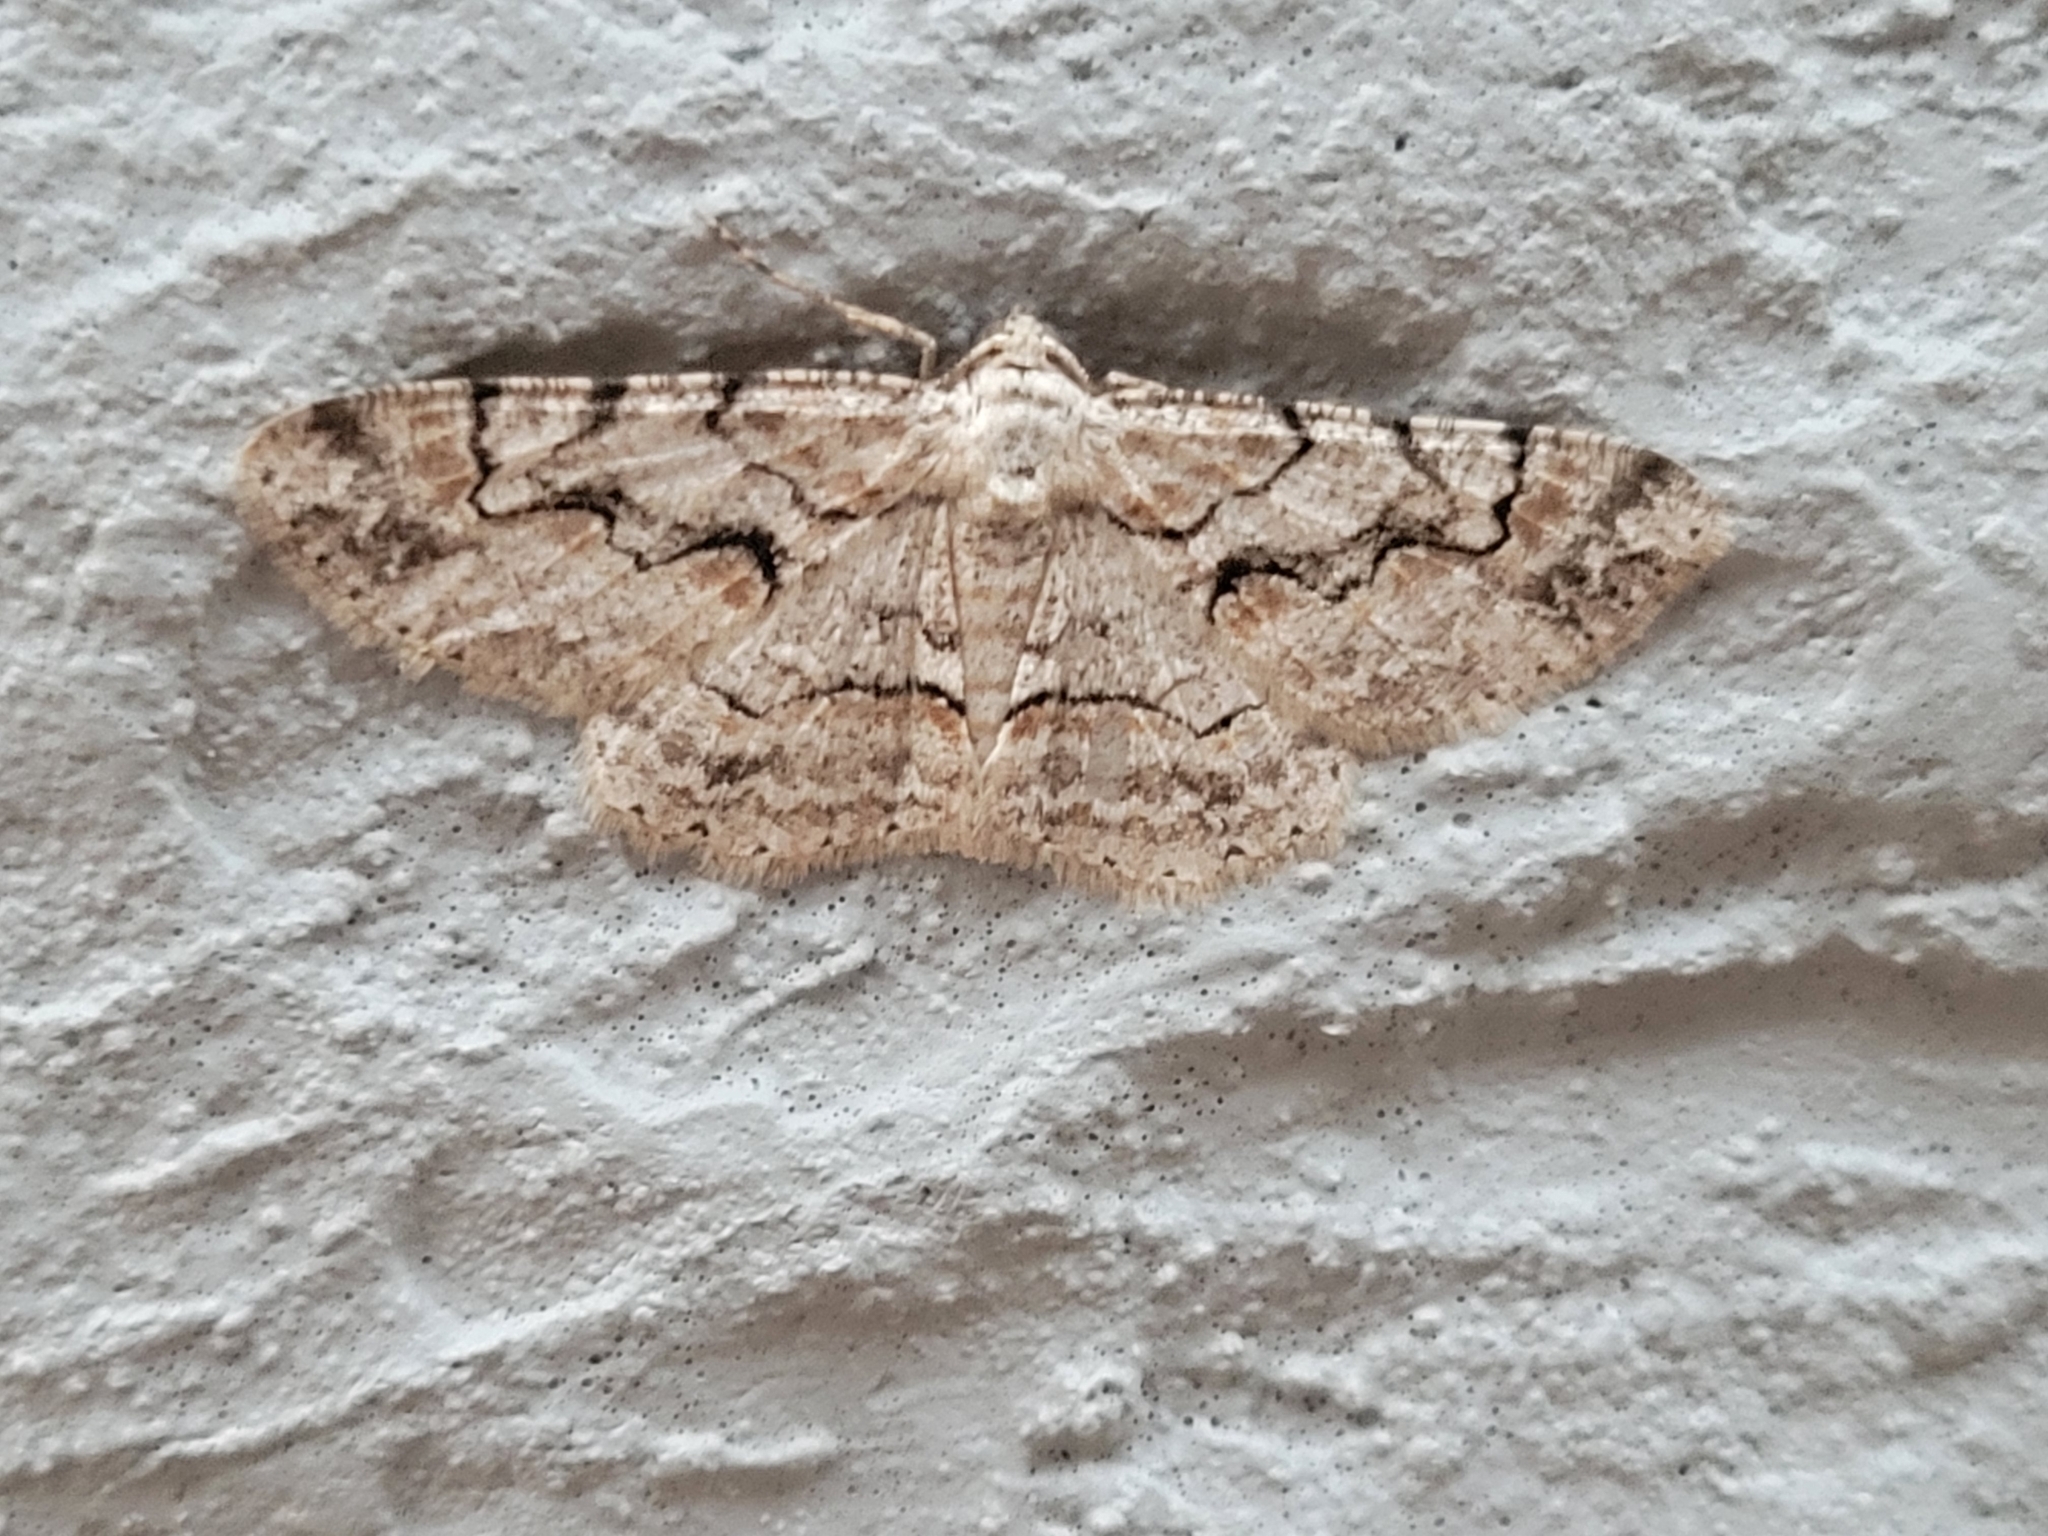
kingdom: Animalia
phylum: Arthropoda
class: Insecta
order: Lepidoptera
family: Geometridae
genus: Iridopsis
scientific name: Iridopsis defectaria
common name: Brown-shaded gray
